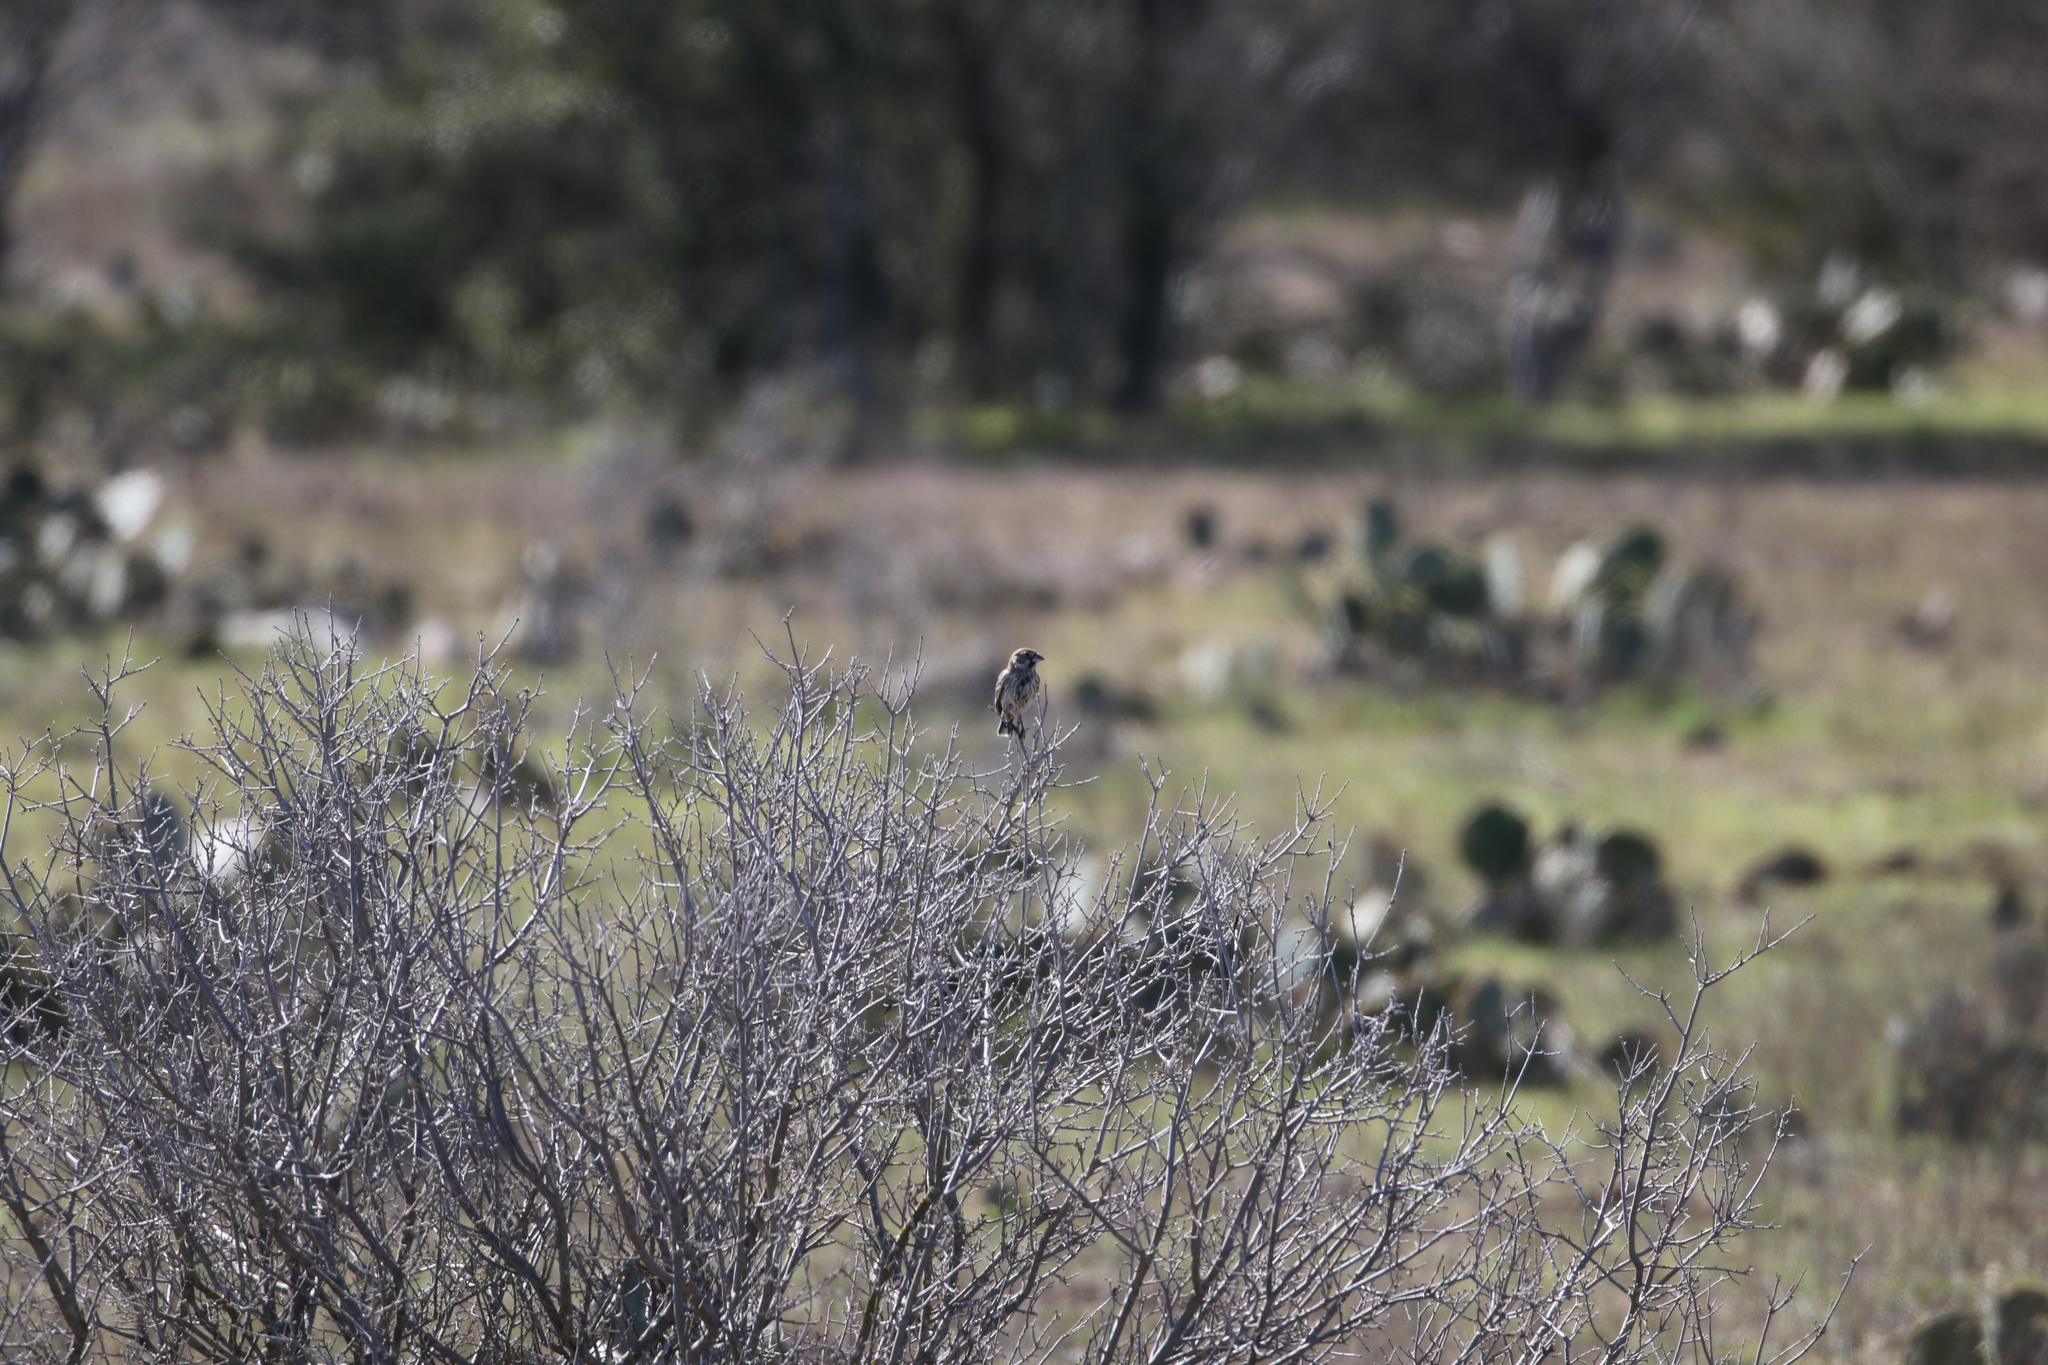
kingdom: Animalia
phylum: Chordata
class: Aves
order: Passeriformes
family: Passerellidae
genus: Calamospiza
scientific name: Calamospiza melanocorys
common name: Lark bunting
